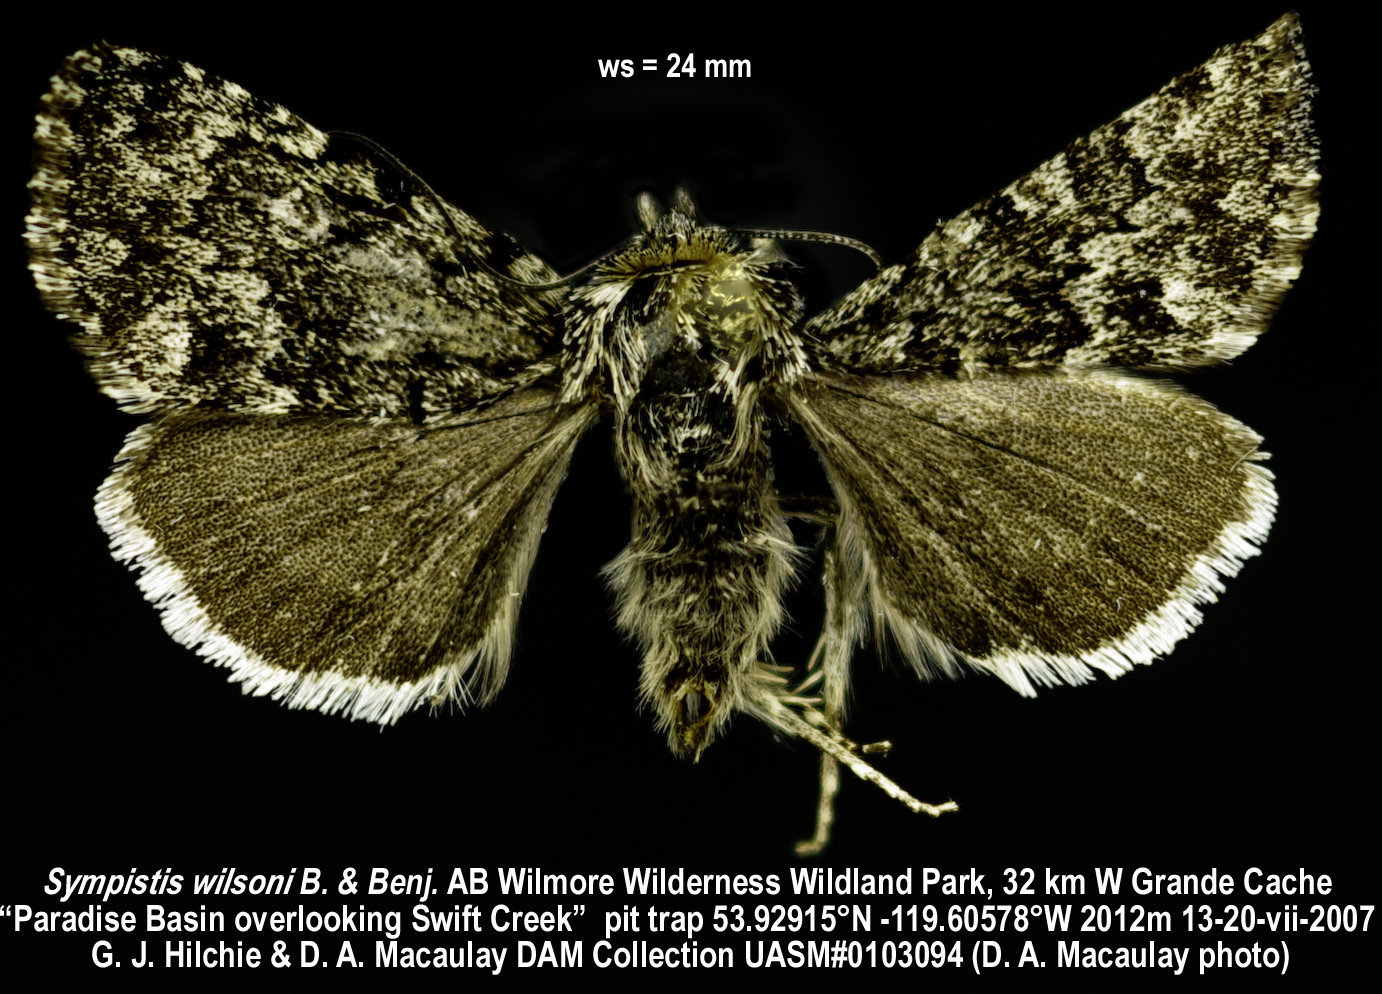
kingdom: Animalia
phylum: Arthropoda
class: Insecta
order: Lepidoptera
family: Noctuidae
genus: Sympistis
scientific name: Sympistis wilsoni
